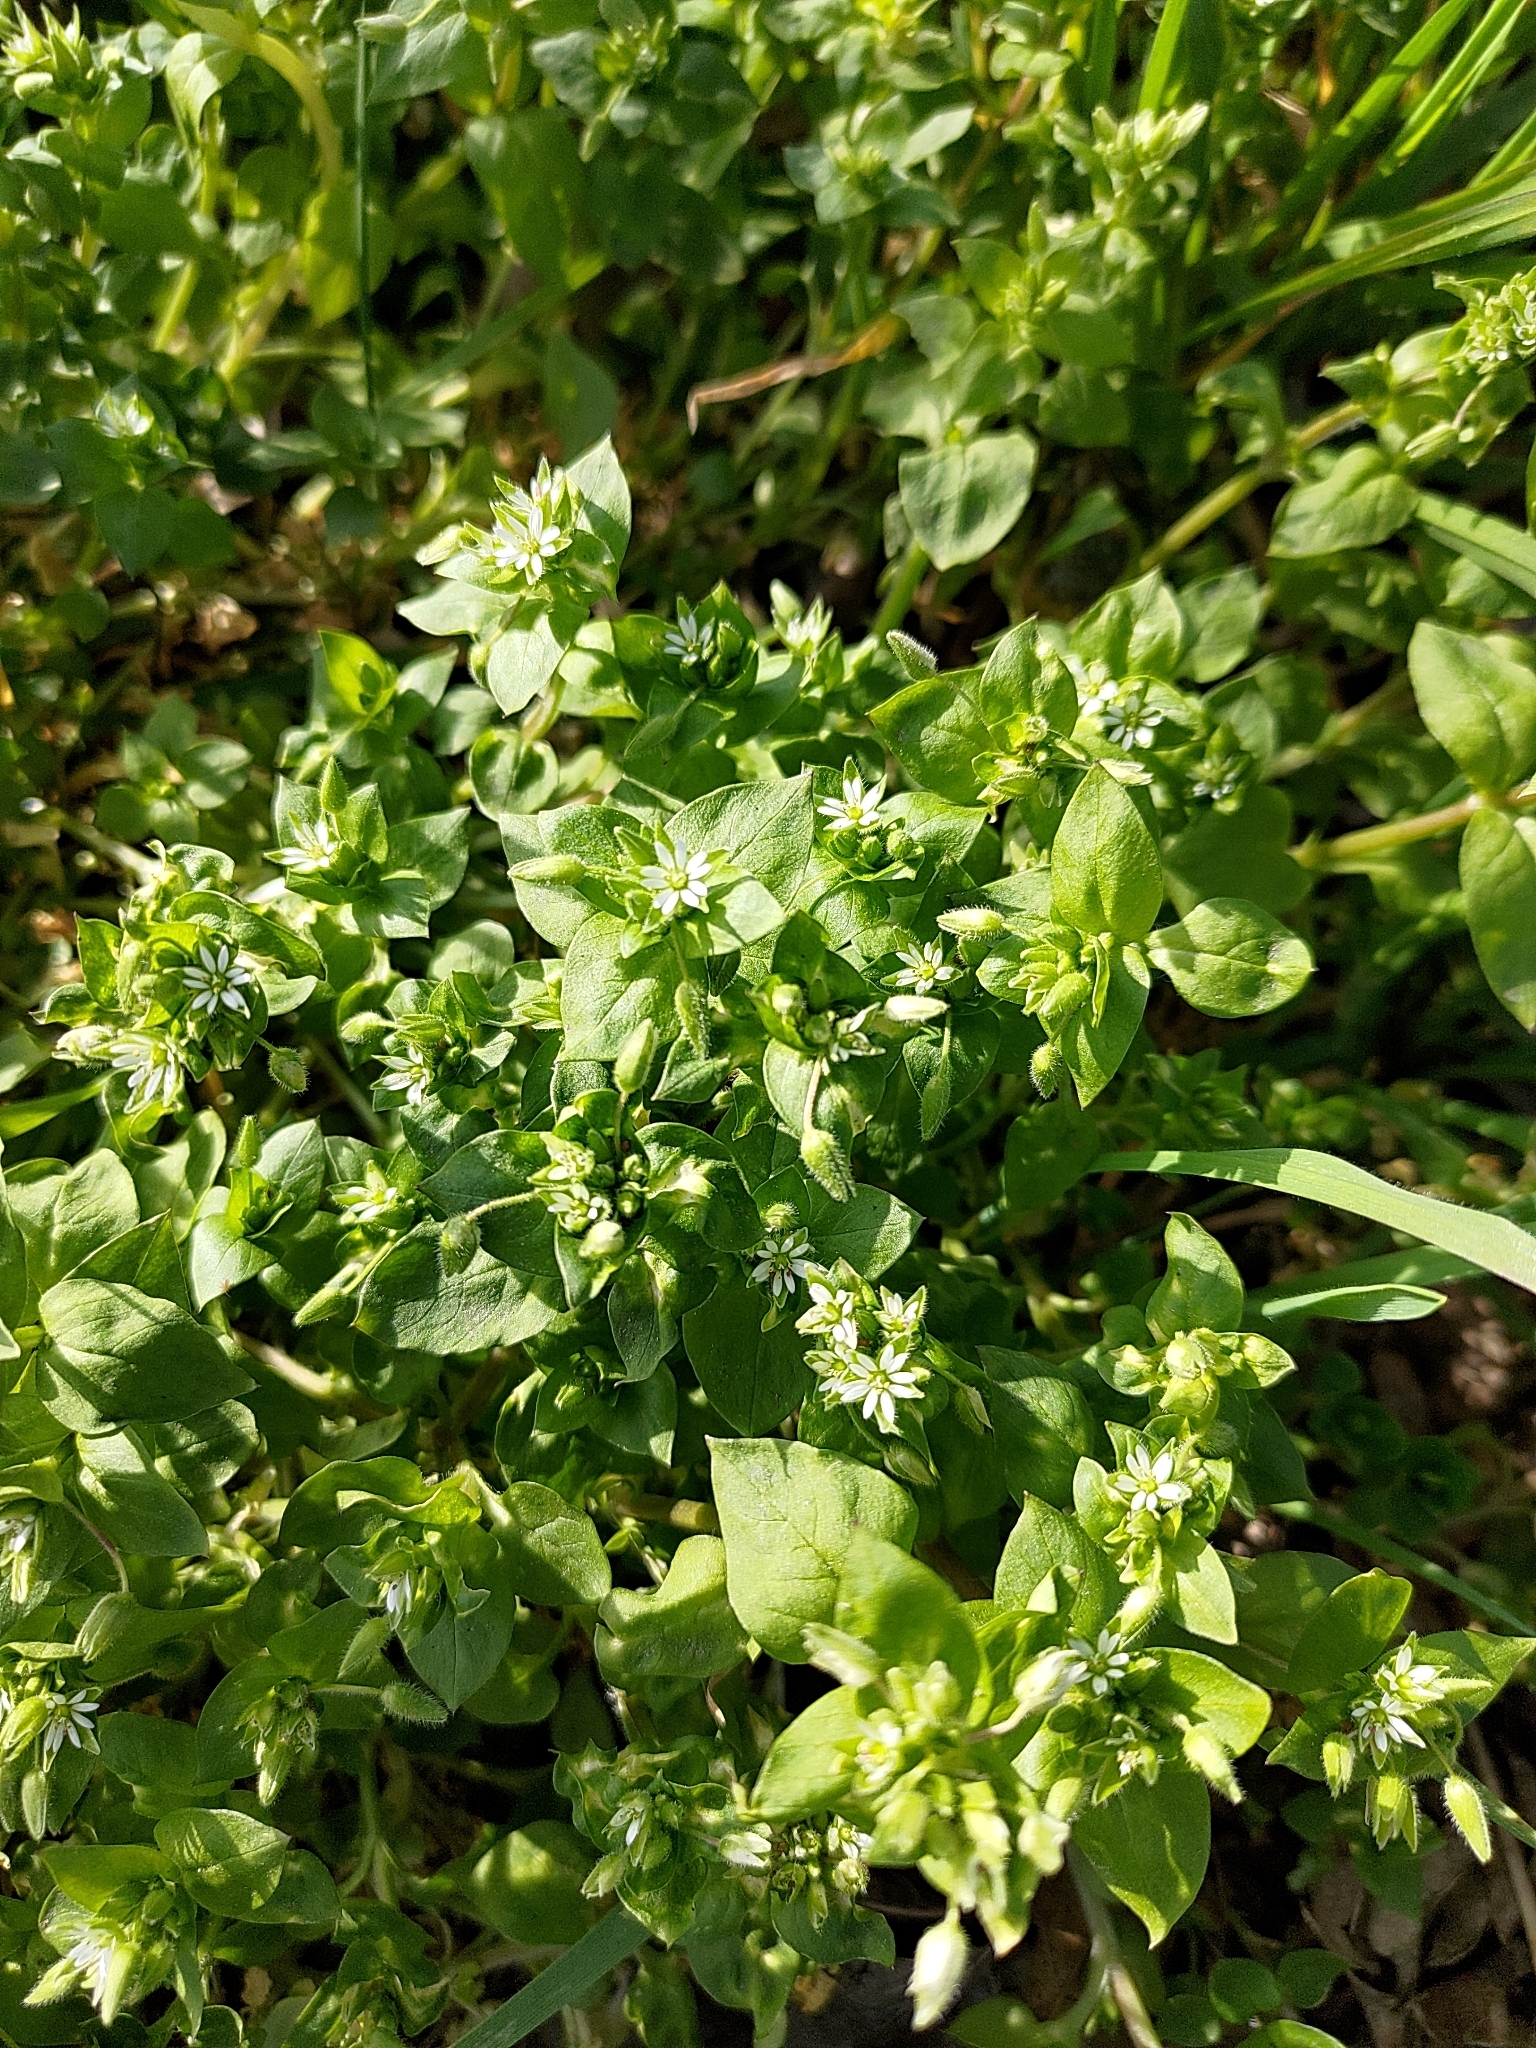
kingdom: Plantae
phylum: Tracheophyta
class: Magnoliopsida
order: Caryophyllales
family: Caryophyllaceae
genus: Stellaria
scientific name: Stellaria media
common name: Common chickweed
